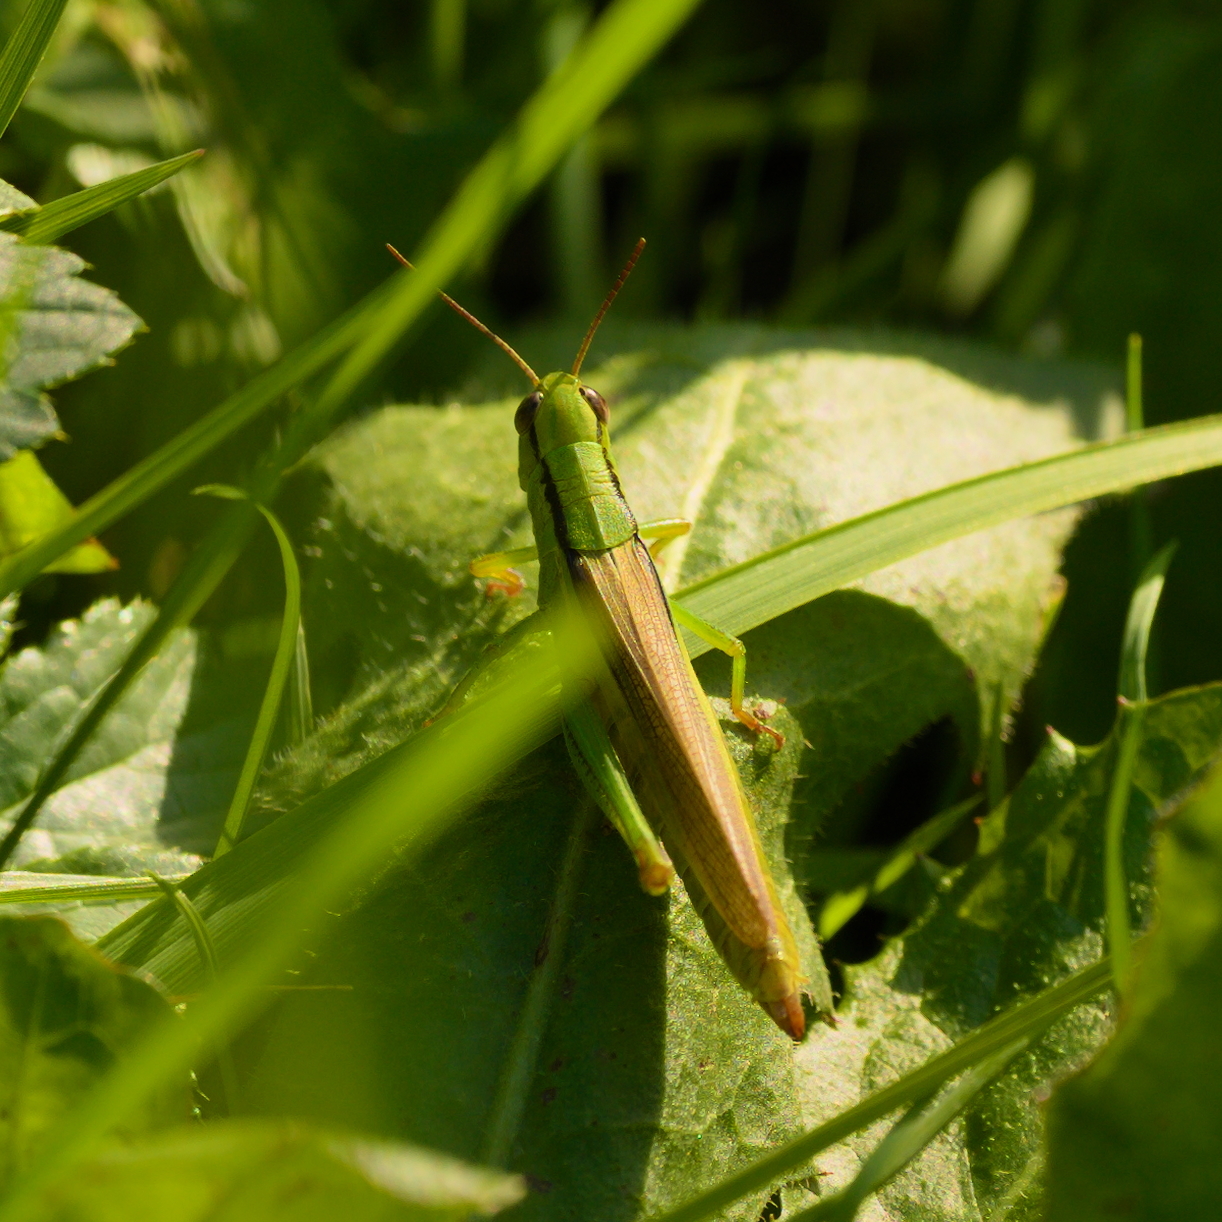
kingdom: Animalia
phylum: Arthropoda
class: Insecta
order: Orthoptera
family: Acrididae
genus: Mecostethus
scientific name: Mecostethus parapleurus
